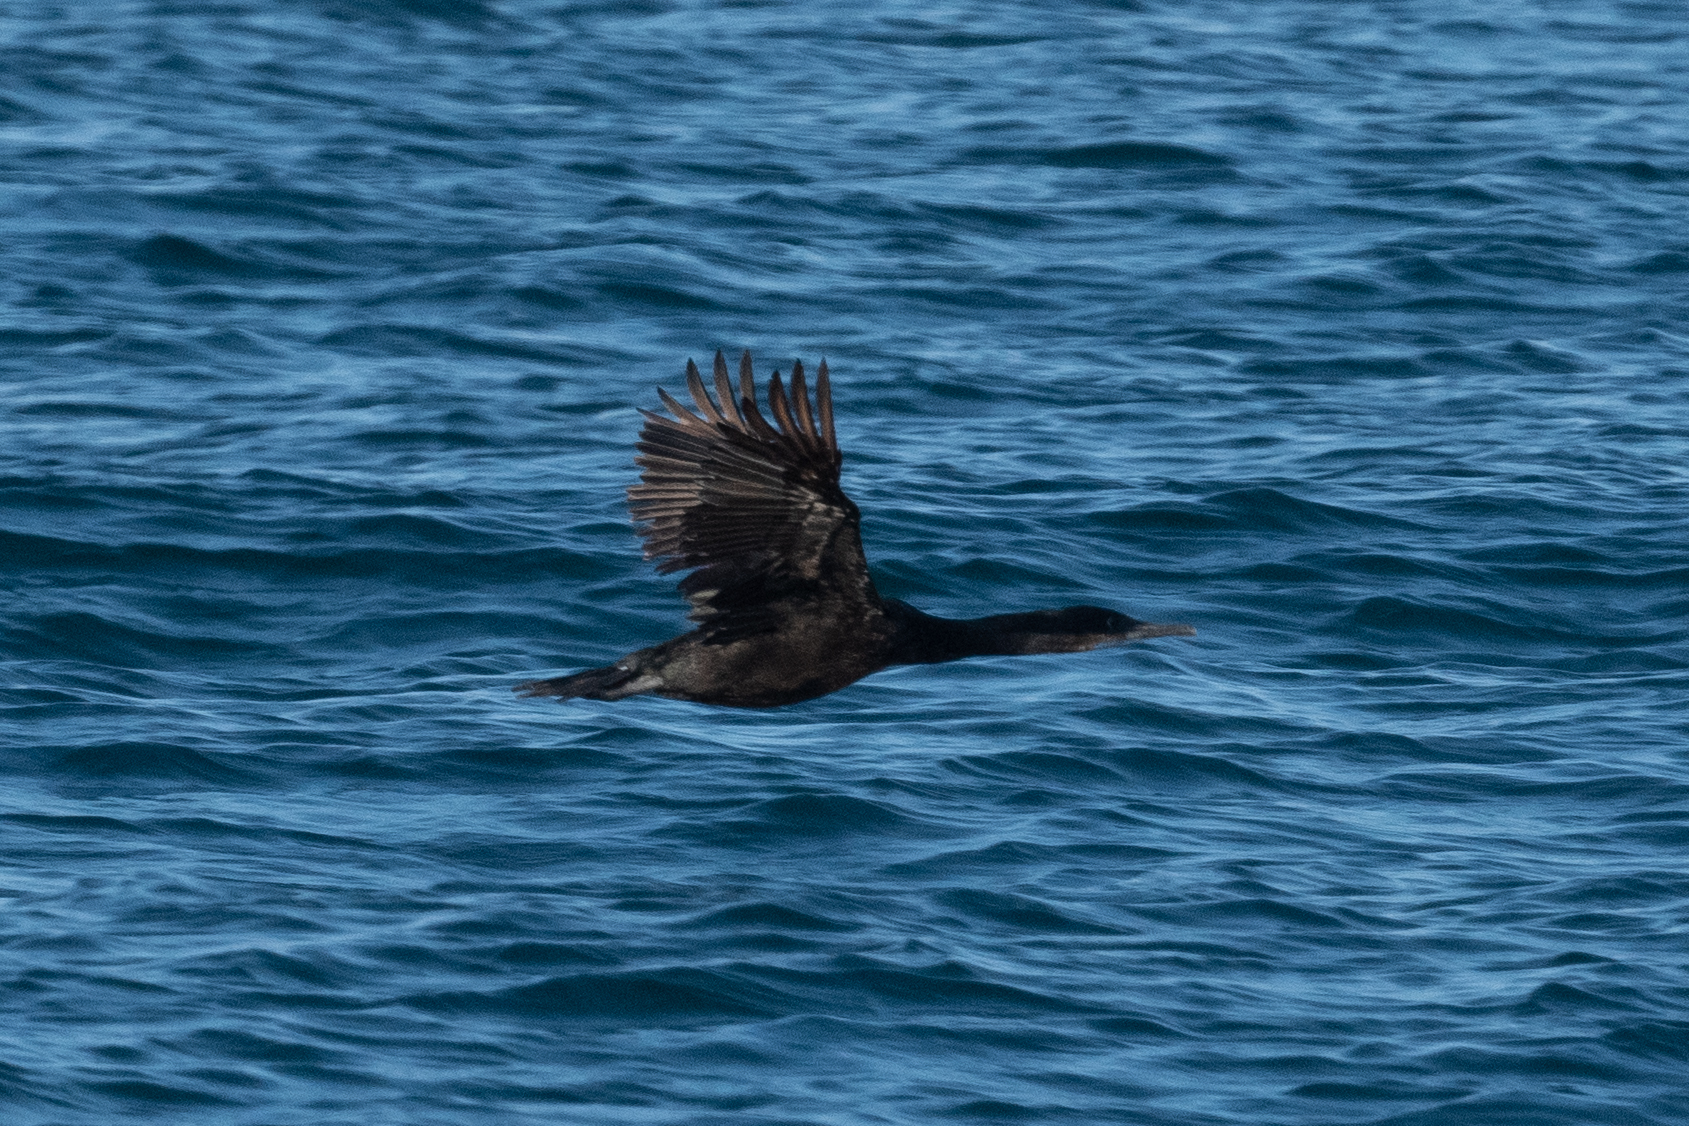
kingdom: Animalia
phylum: Chordata
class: Aves
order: Suliformes
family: Phalacrocoracidae
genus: Urile
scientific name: Urile penicillatus
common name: Brandt's cormorant
